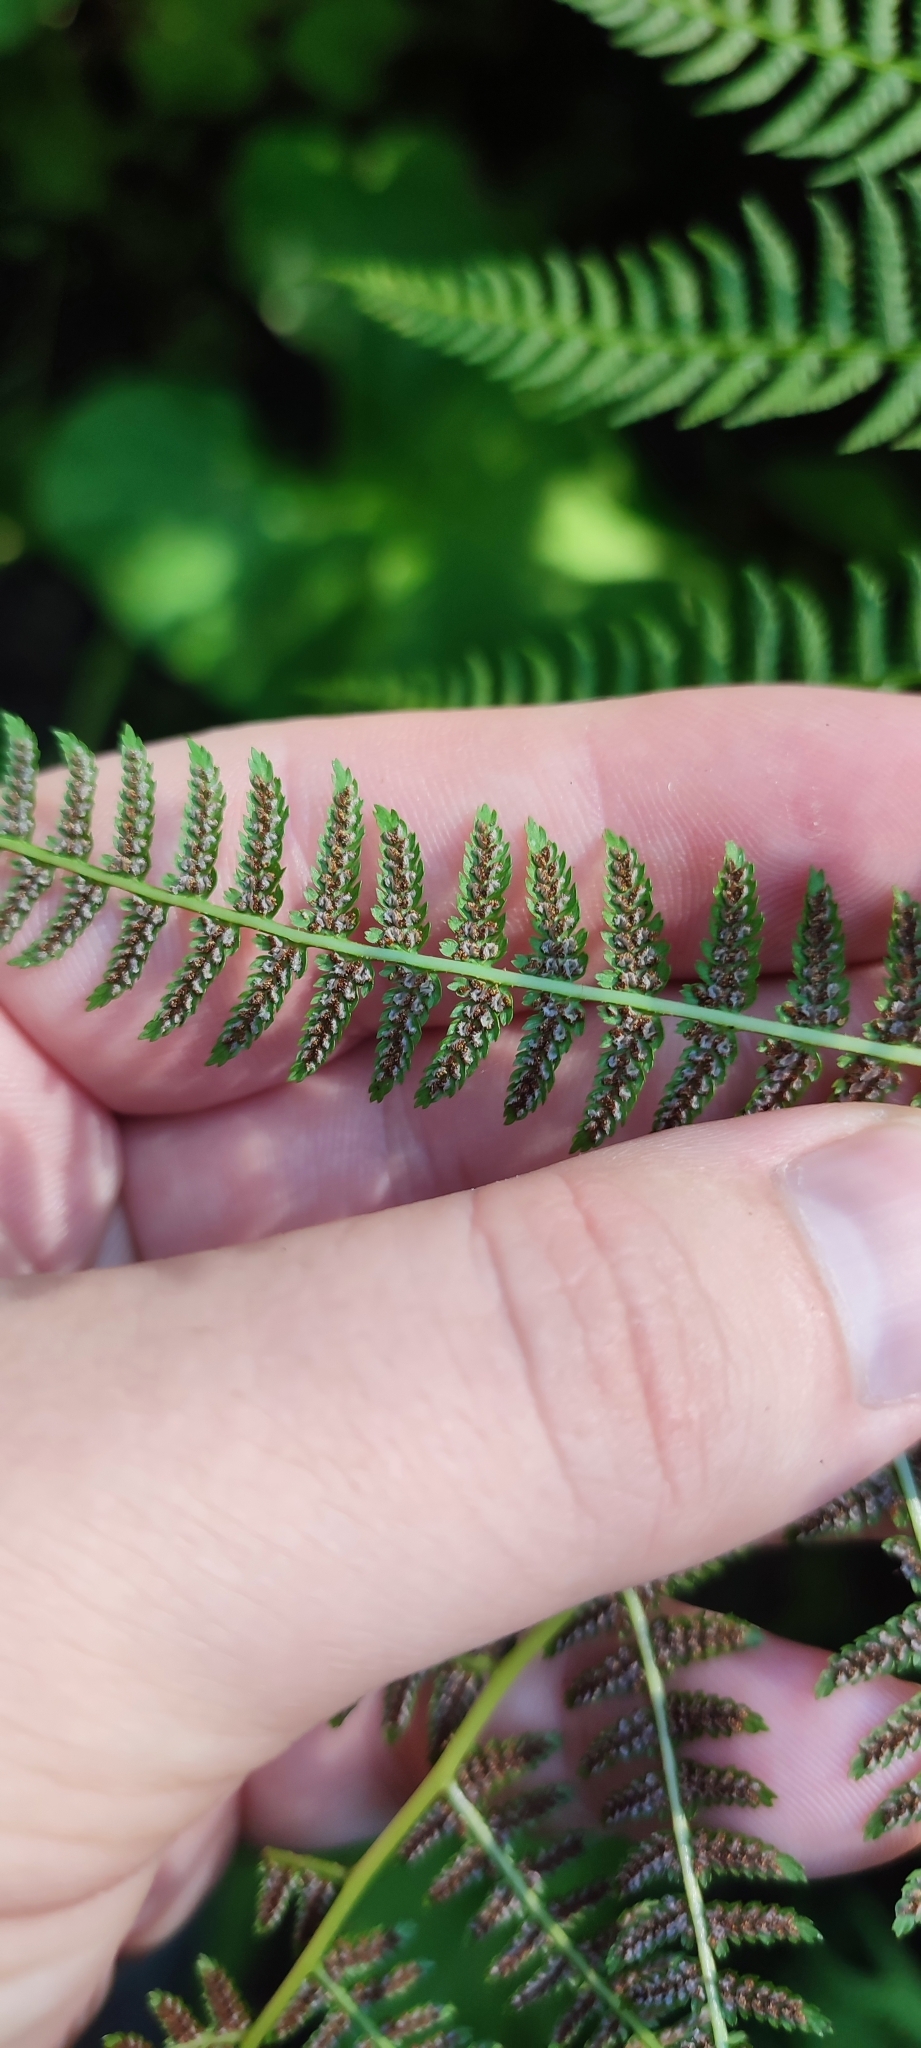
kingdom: Plantae
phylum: Tracheophyta
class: Polypodiopsida
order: Polypodiales
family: Athyriaceae
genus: Athyrium
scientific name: Athyrium filix-femina
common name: Lady fern
